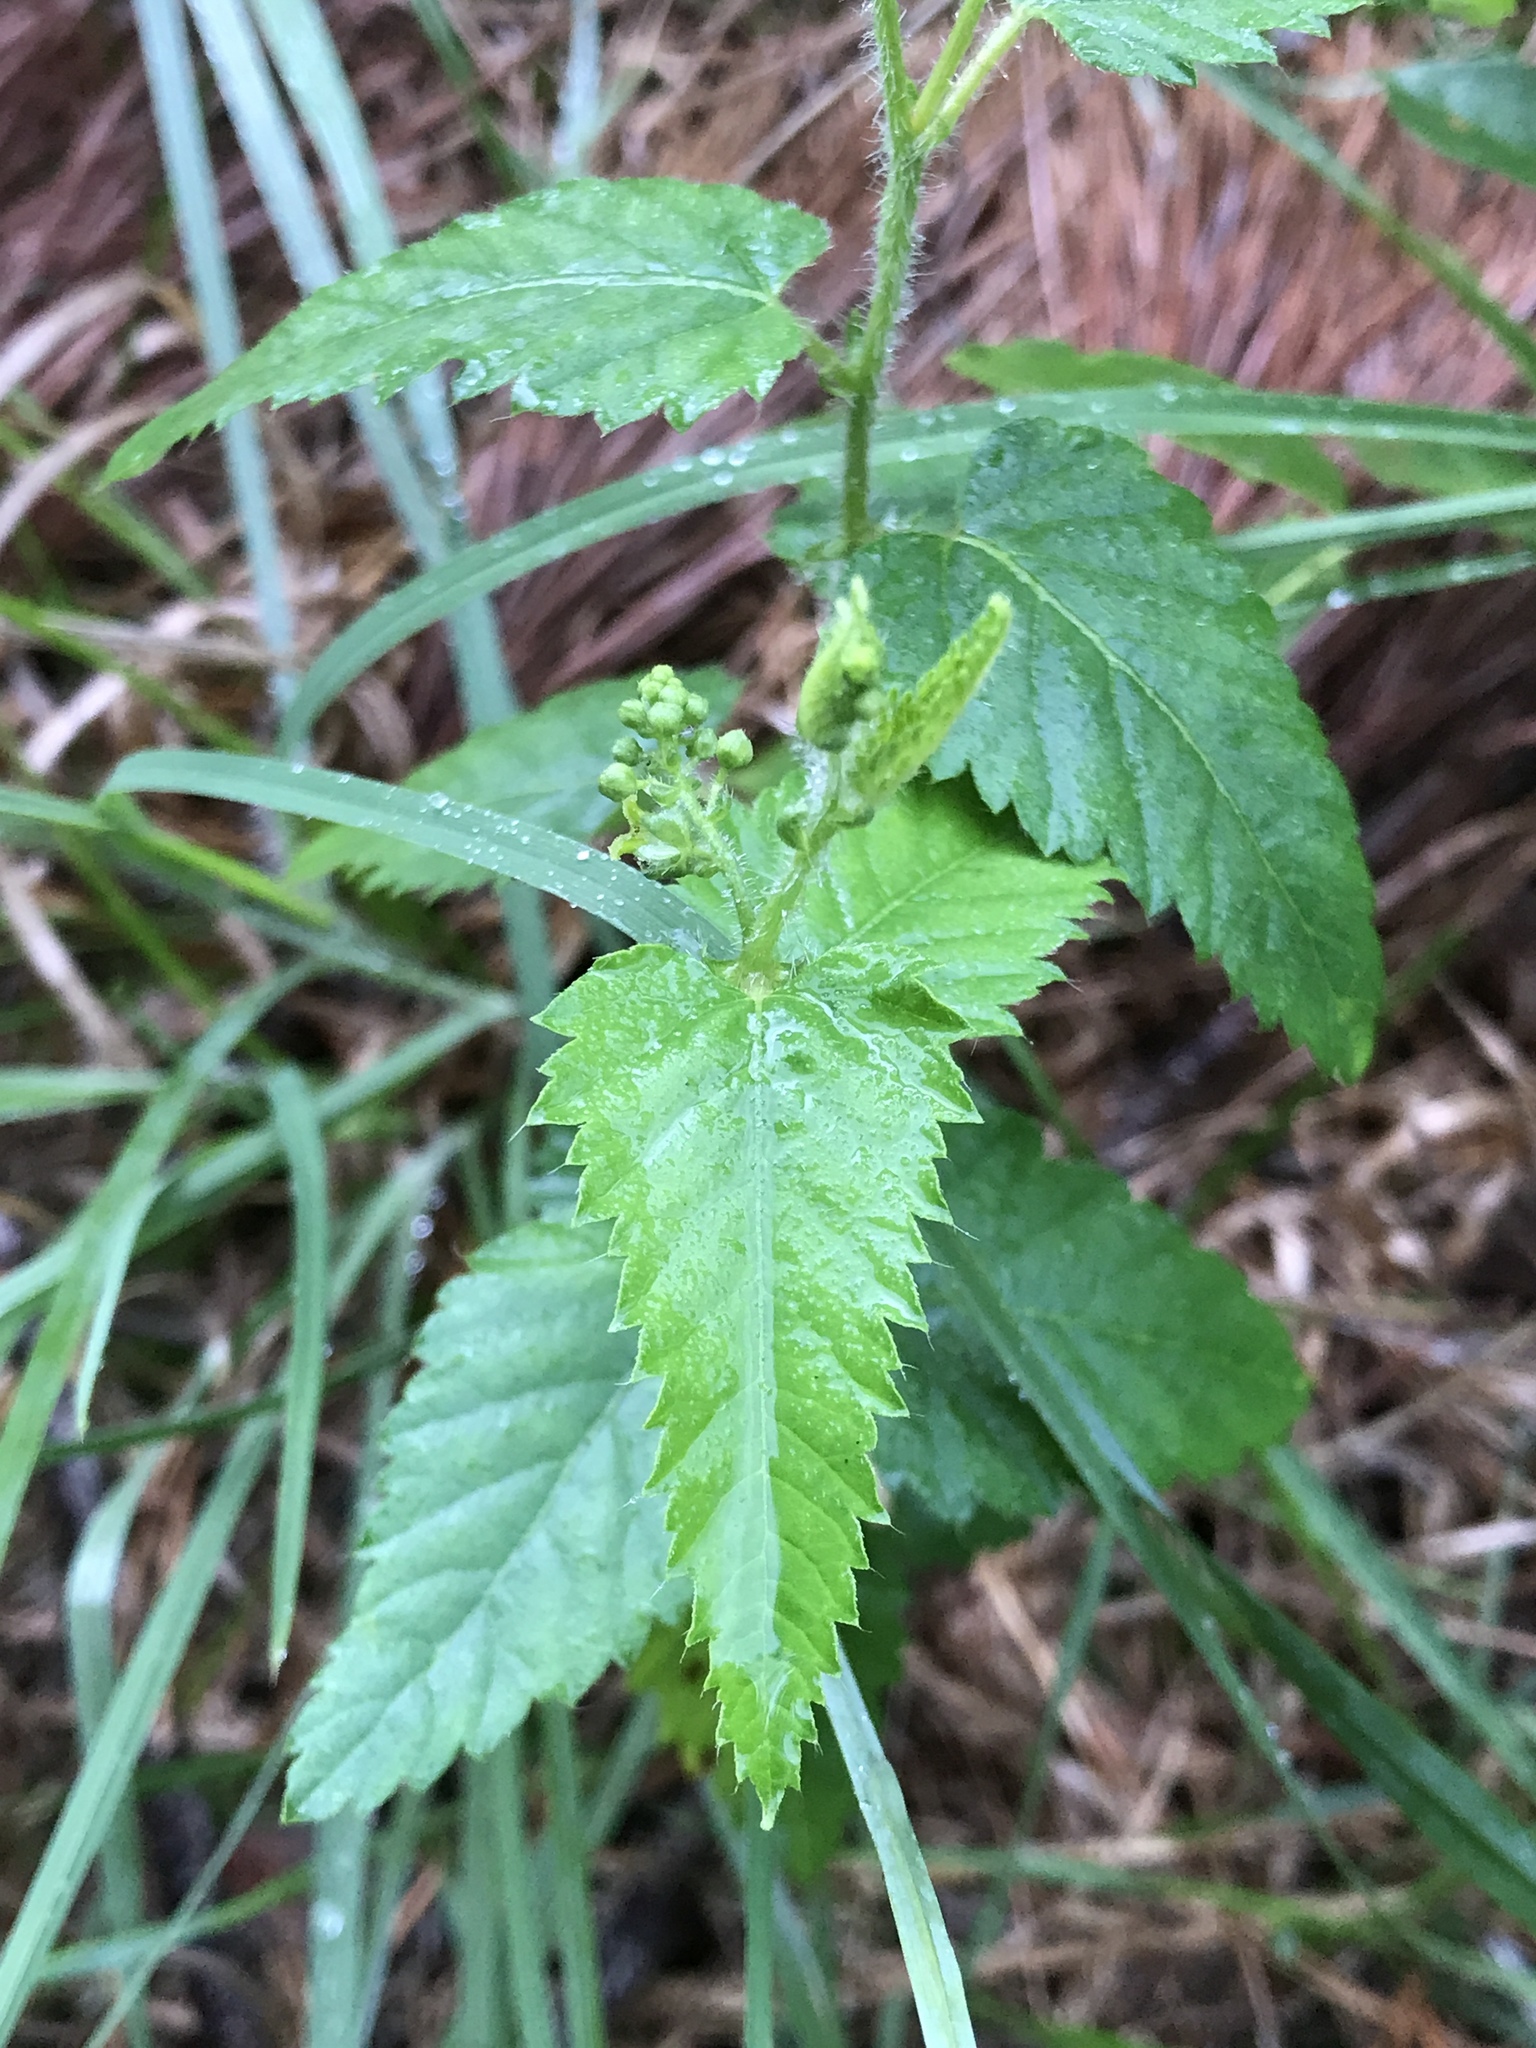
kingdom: Plantae
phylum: Tracheophyta
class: Magnoliopsida
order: Malpighiales
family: Euphorbiaceae
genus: Tragia
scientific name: Tragia urticifolia
